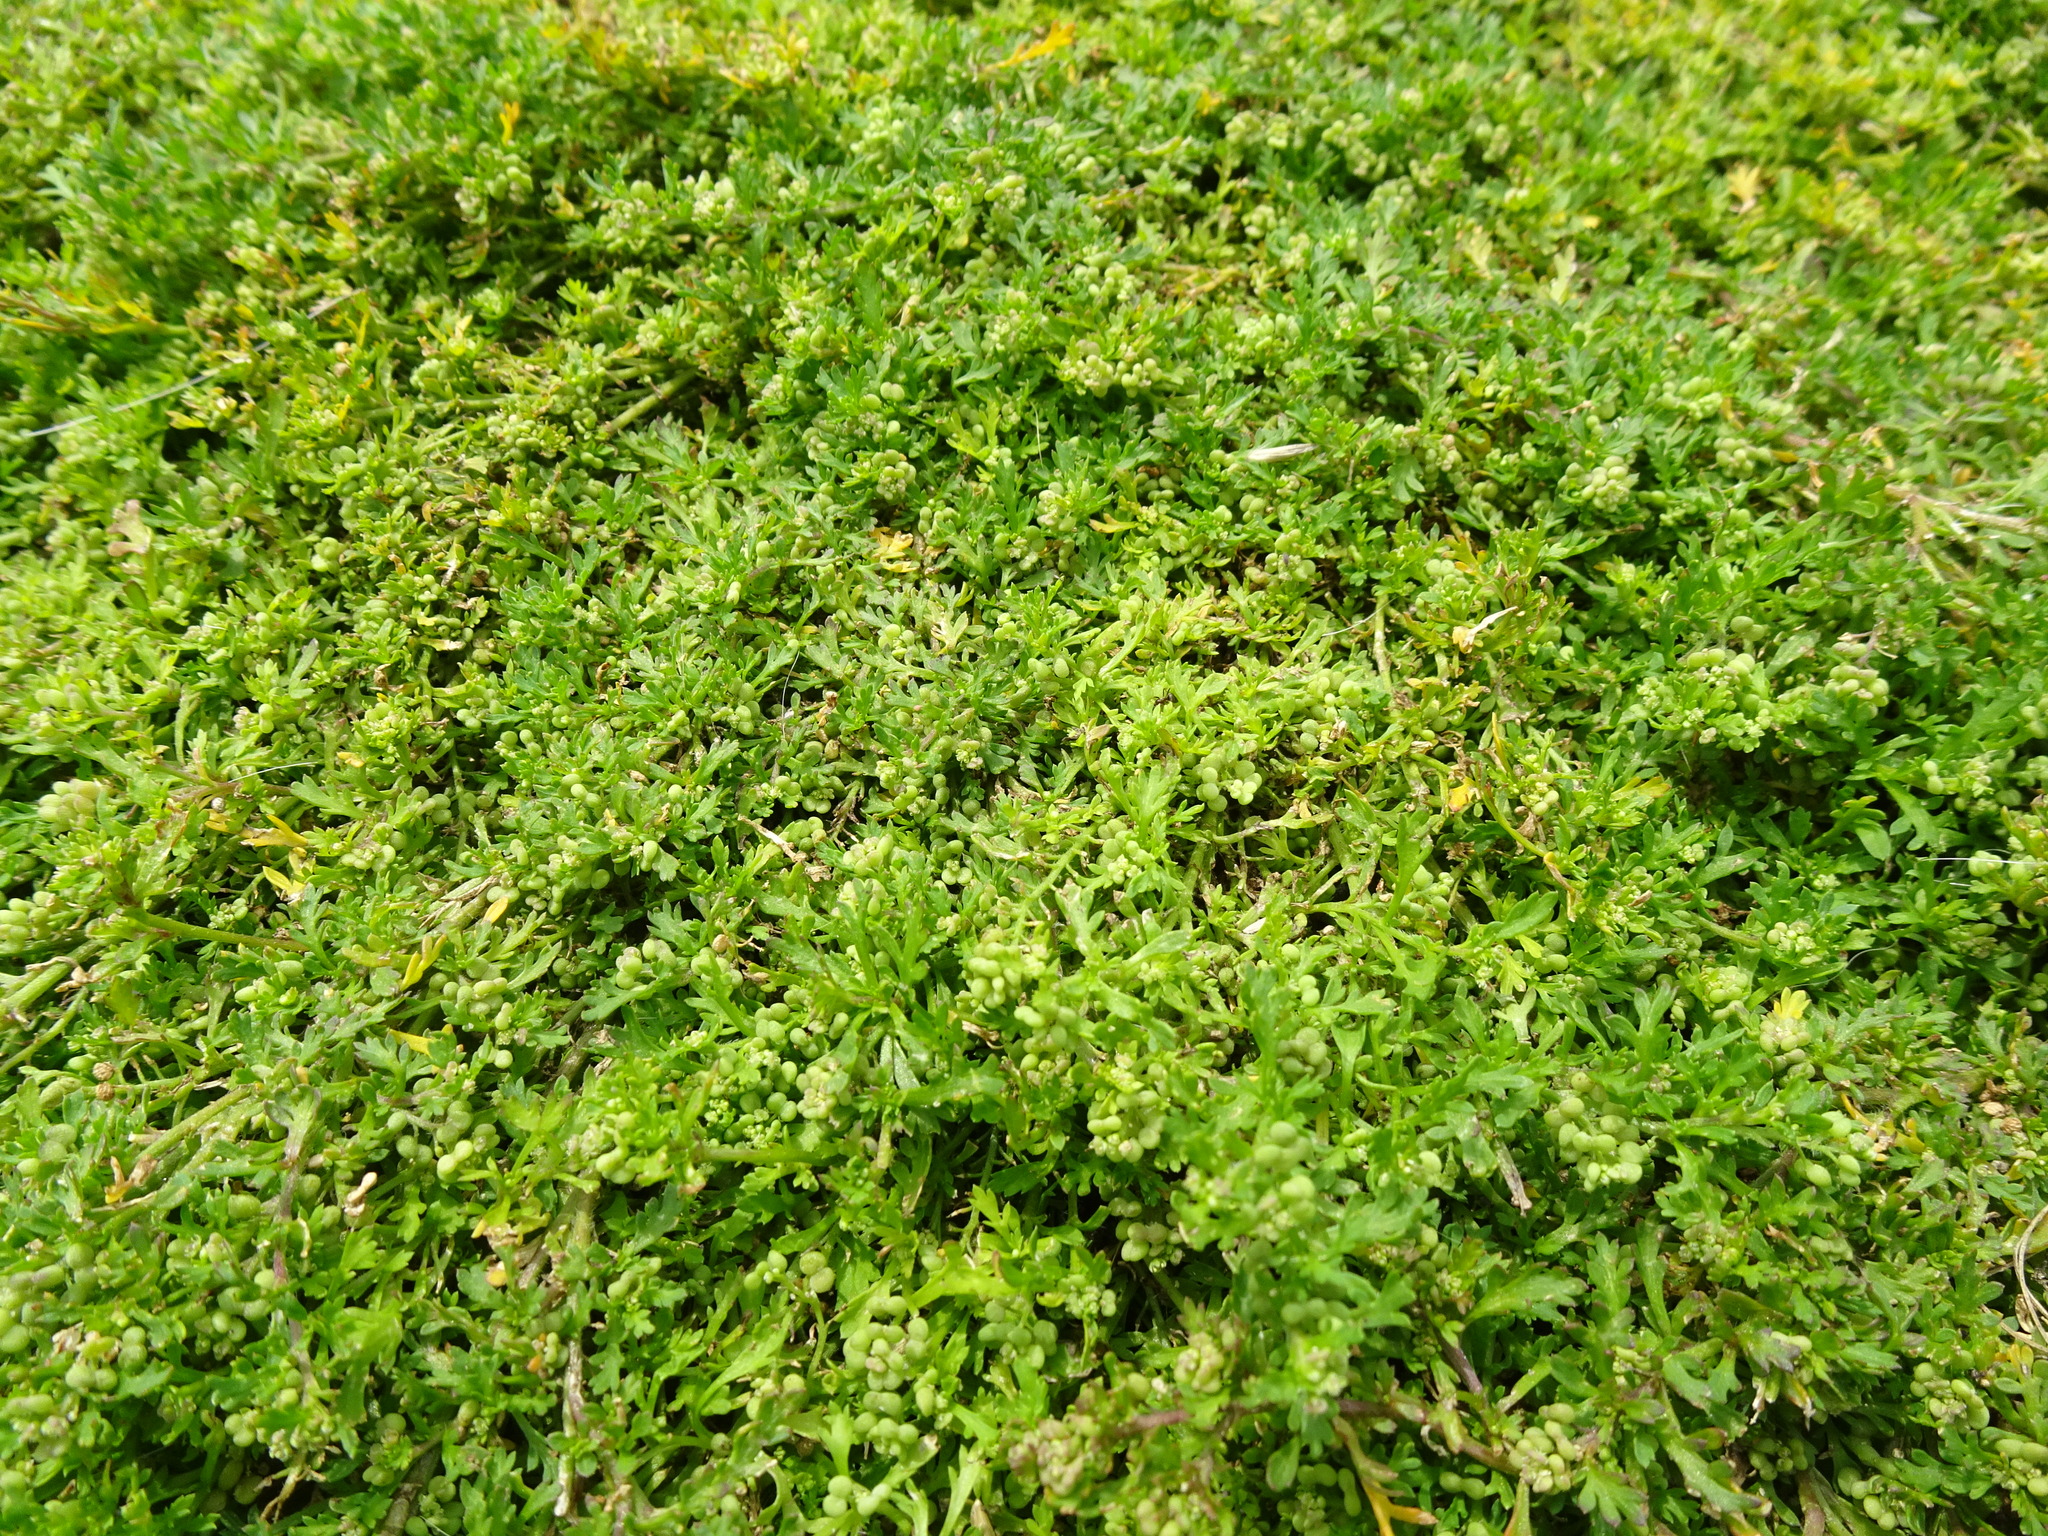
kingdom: Plantae
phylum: Tracheophyta
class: Magnoliopsida
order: Brassicales
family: Brassicaceae
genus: Lepidium
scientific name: Lepidium didymum
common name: Lesser swinecress
